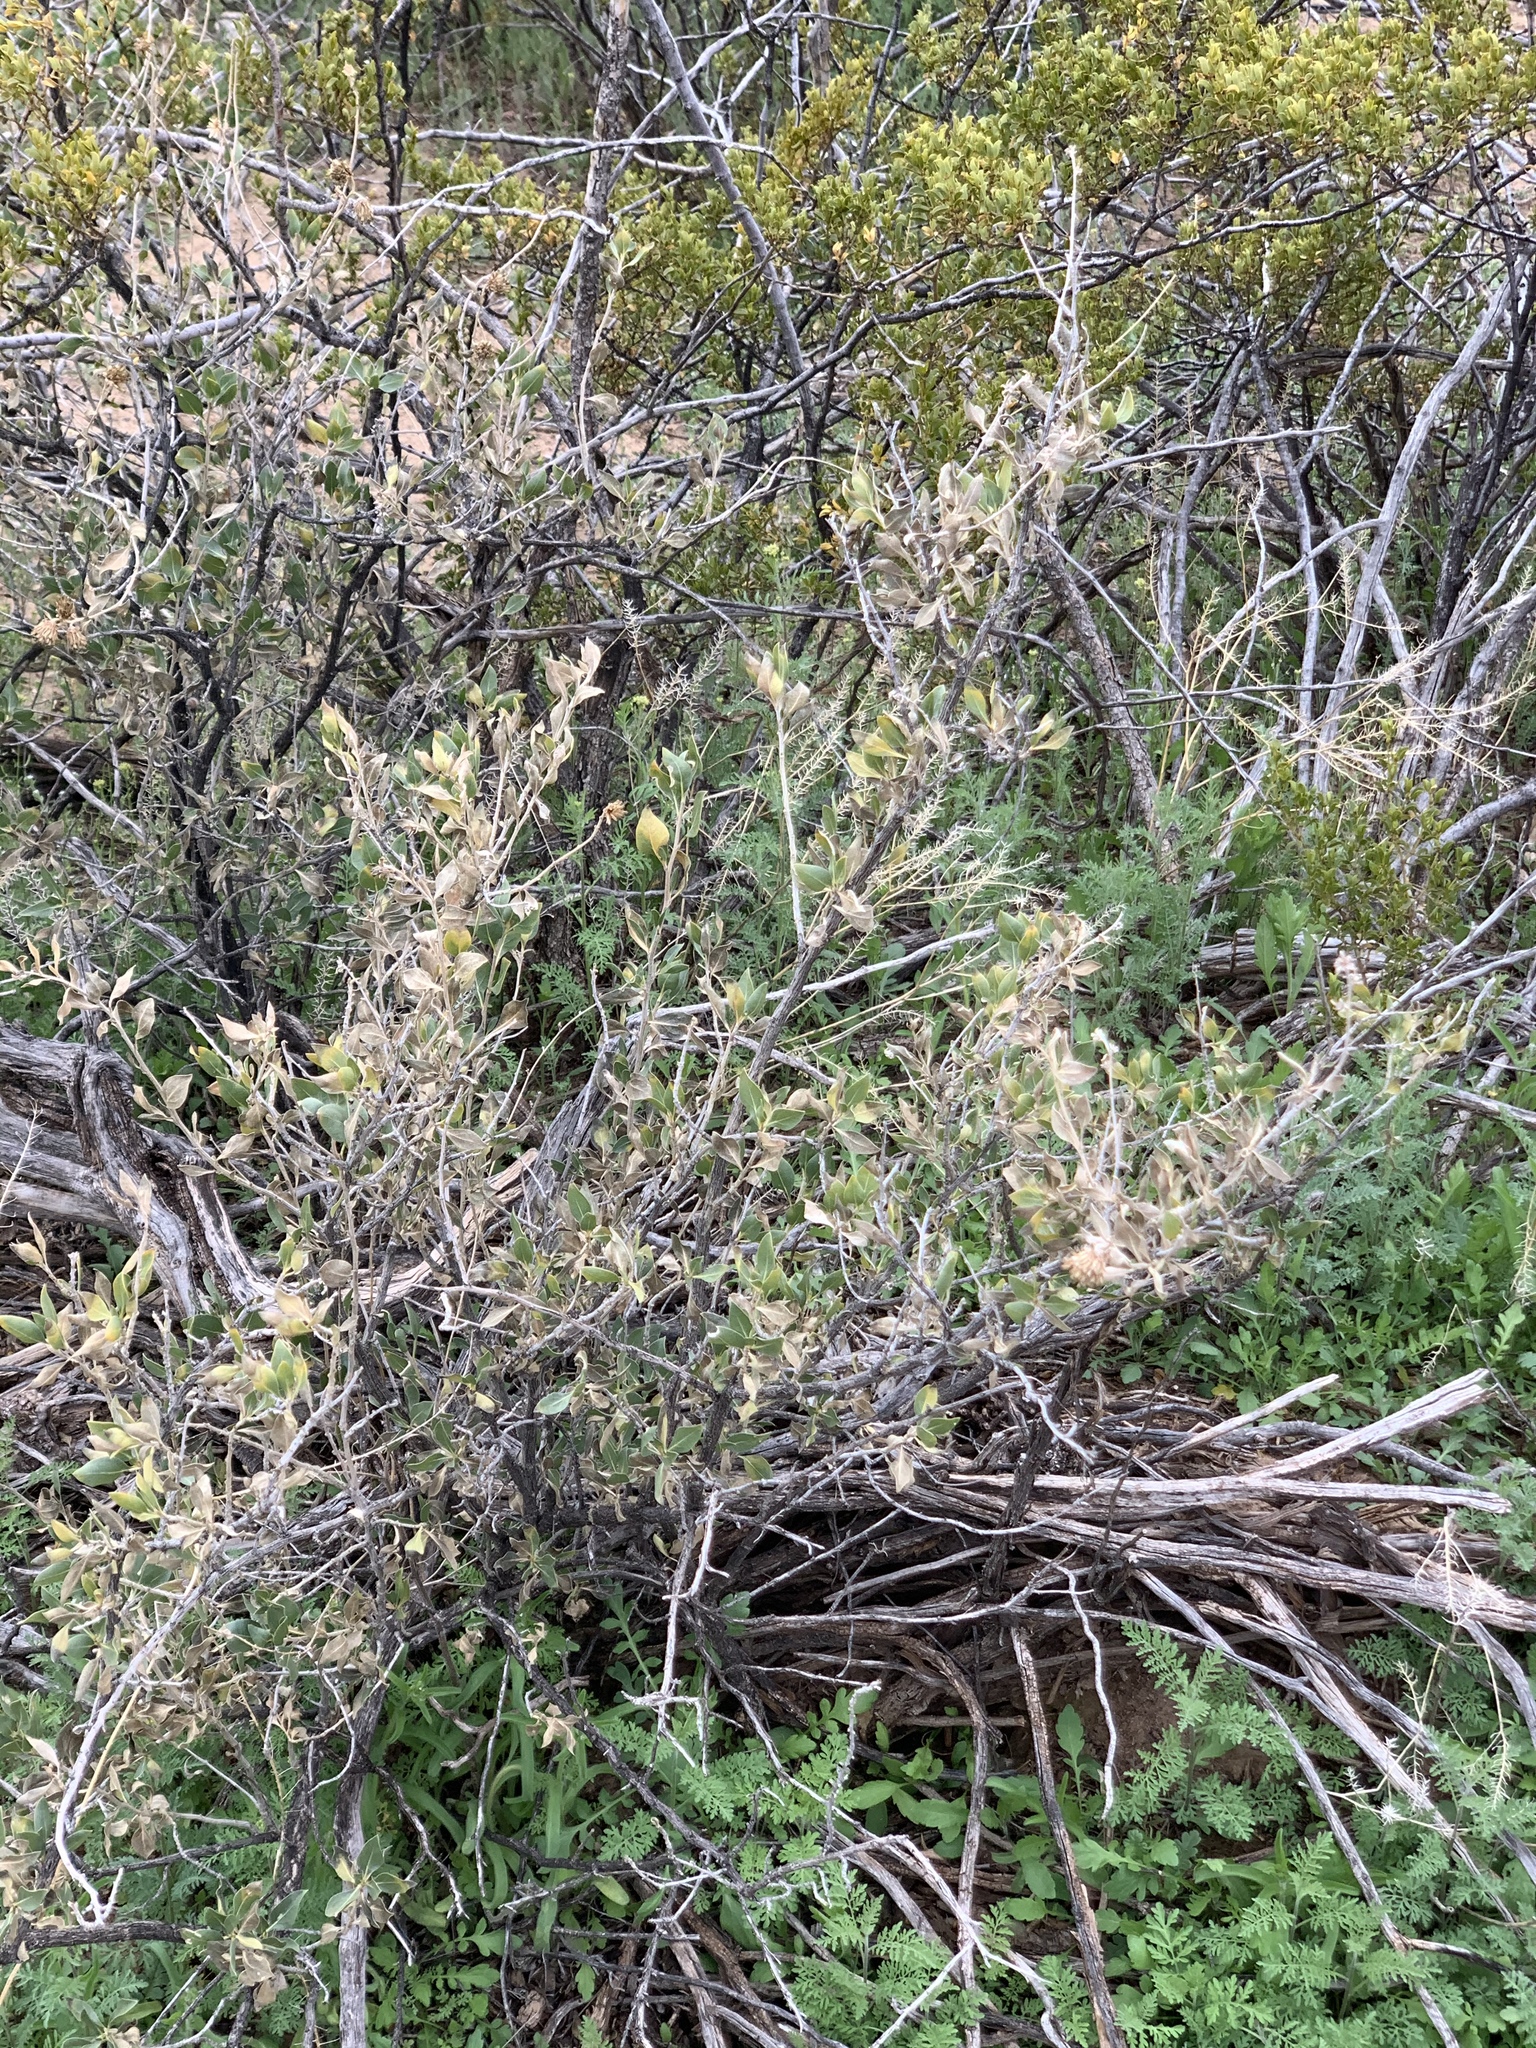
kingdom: Plantae
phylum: Tracheophyta
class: Magnoliopsida
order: Asterales
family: Asteraceae
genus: Flourensia
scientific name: Flourensia cernua
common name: Varnishbush
